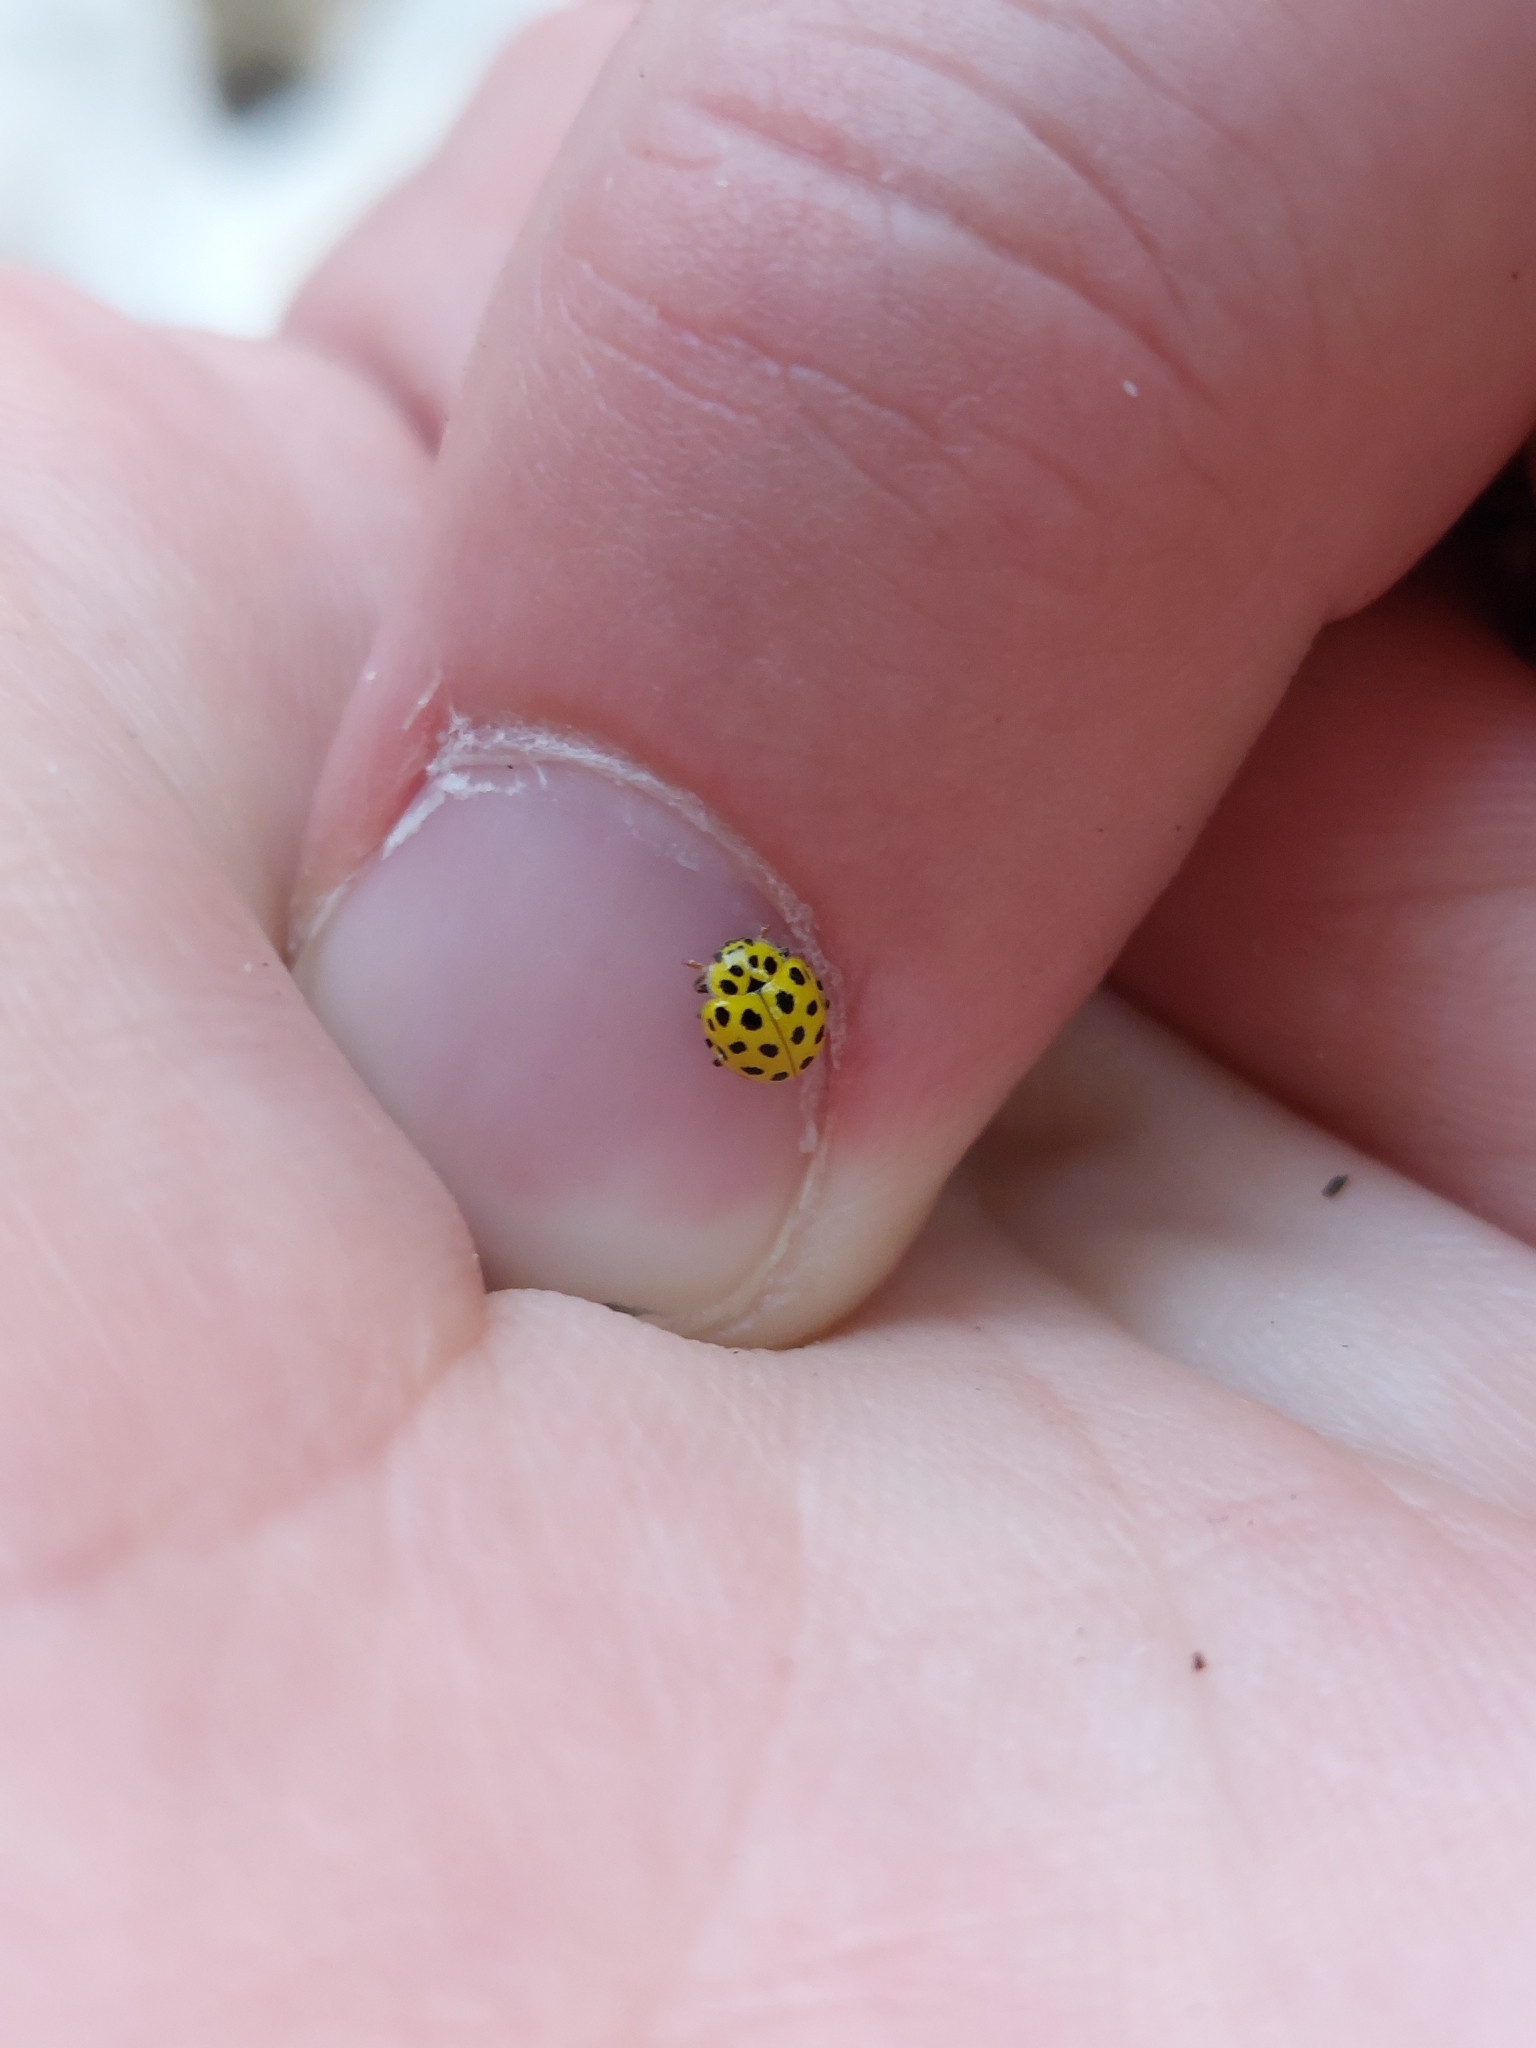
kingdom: Animalia
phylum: Arthropoda
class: Insecta
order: Coleoptera
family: Coccinellidae
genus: Psyllobora
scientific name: Psyllobora vigintiduopunctata
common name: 22-spot ladybird
